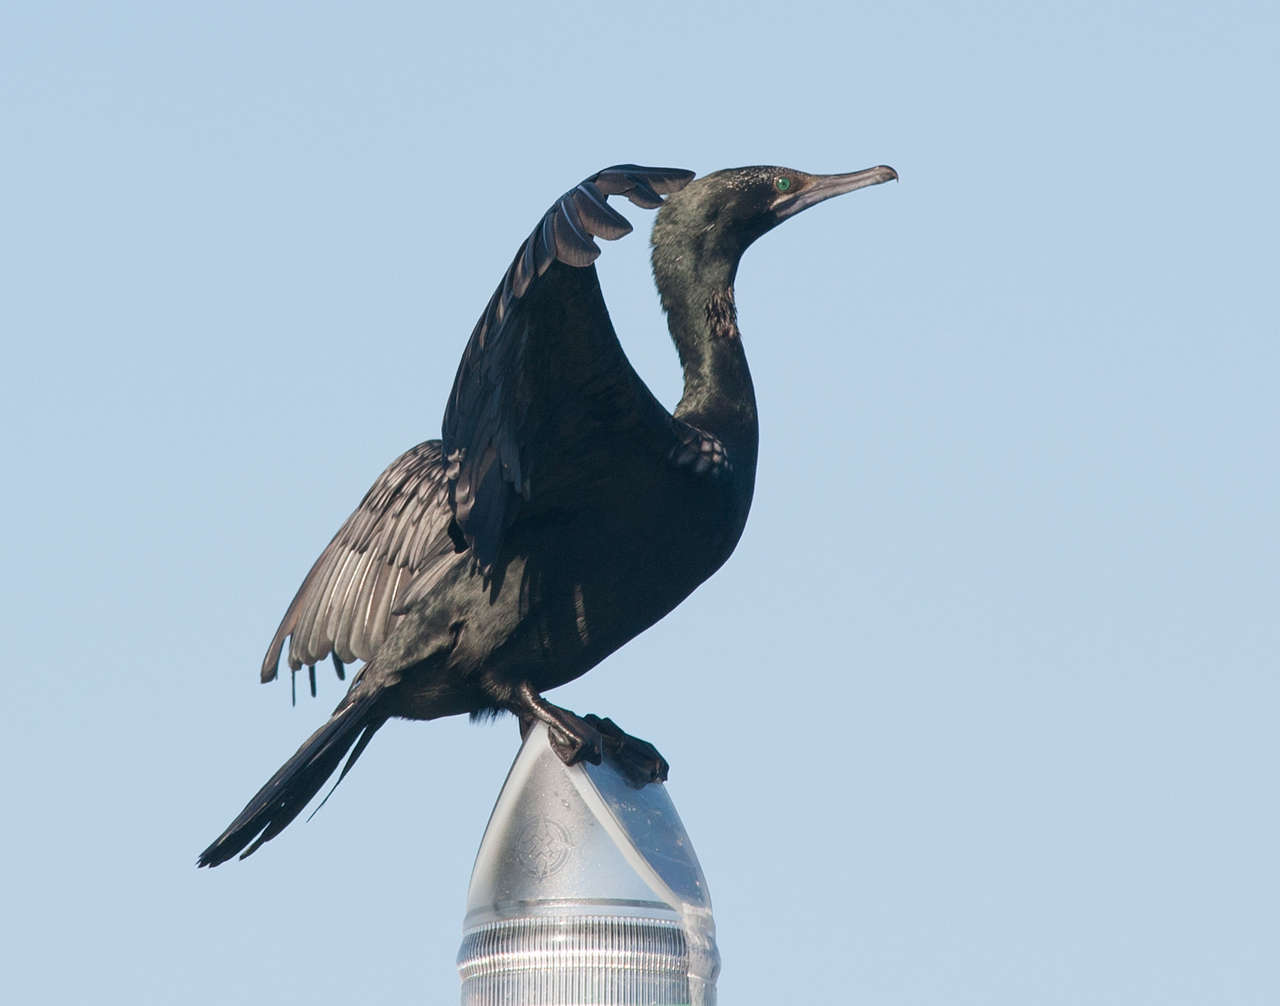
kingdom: Animalia
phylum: Chordata
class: Aves
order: Suliformes
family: Phalacrocoracidae
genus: Phalacrocorax
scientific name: Phalacrocorax sulcirostris
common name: Little black cormorant
